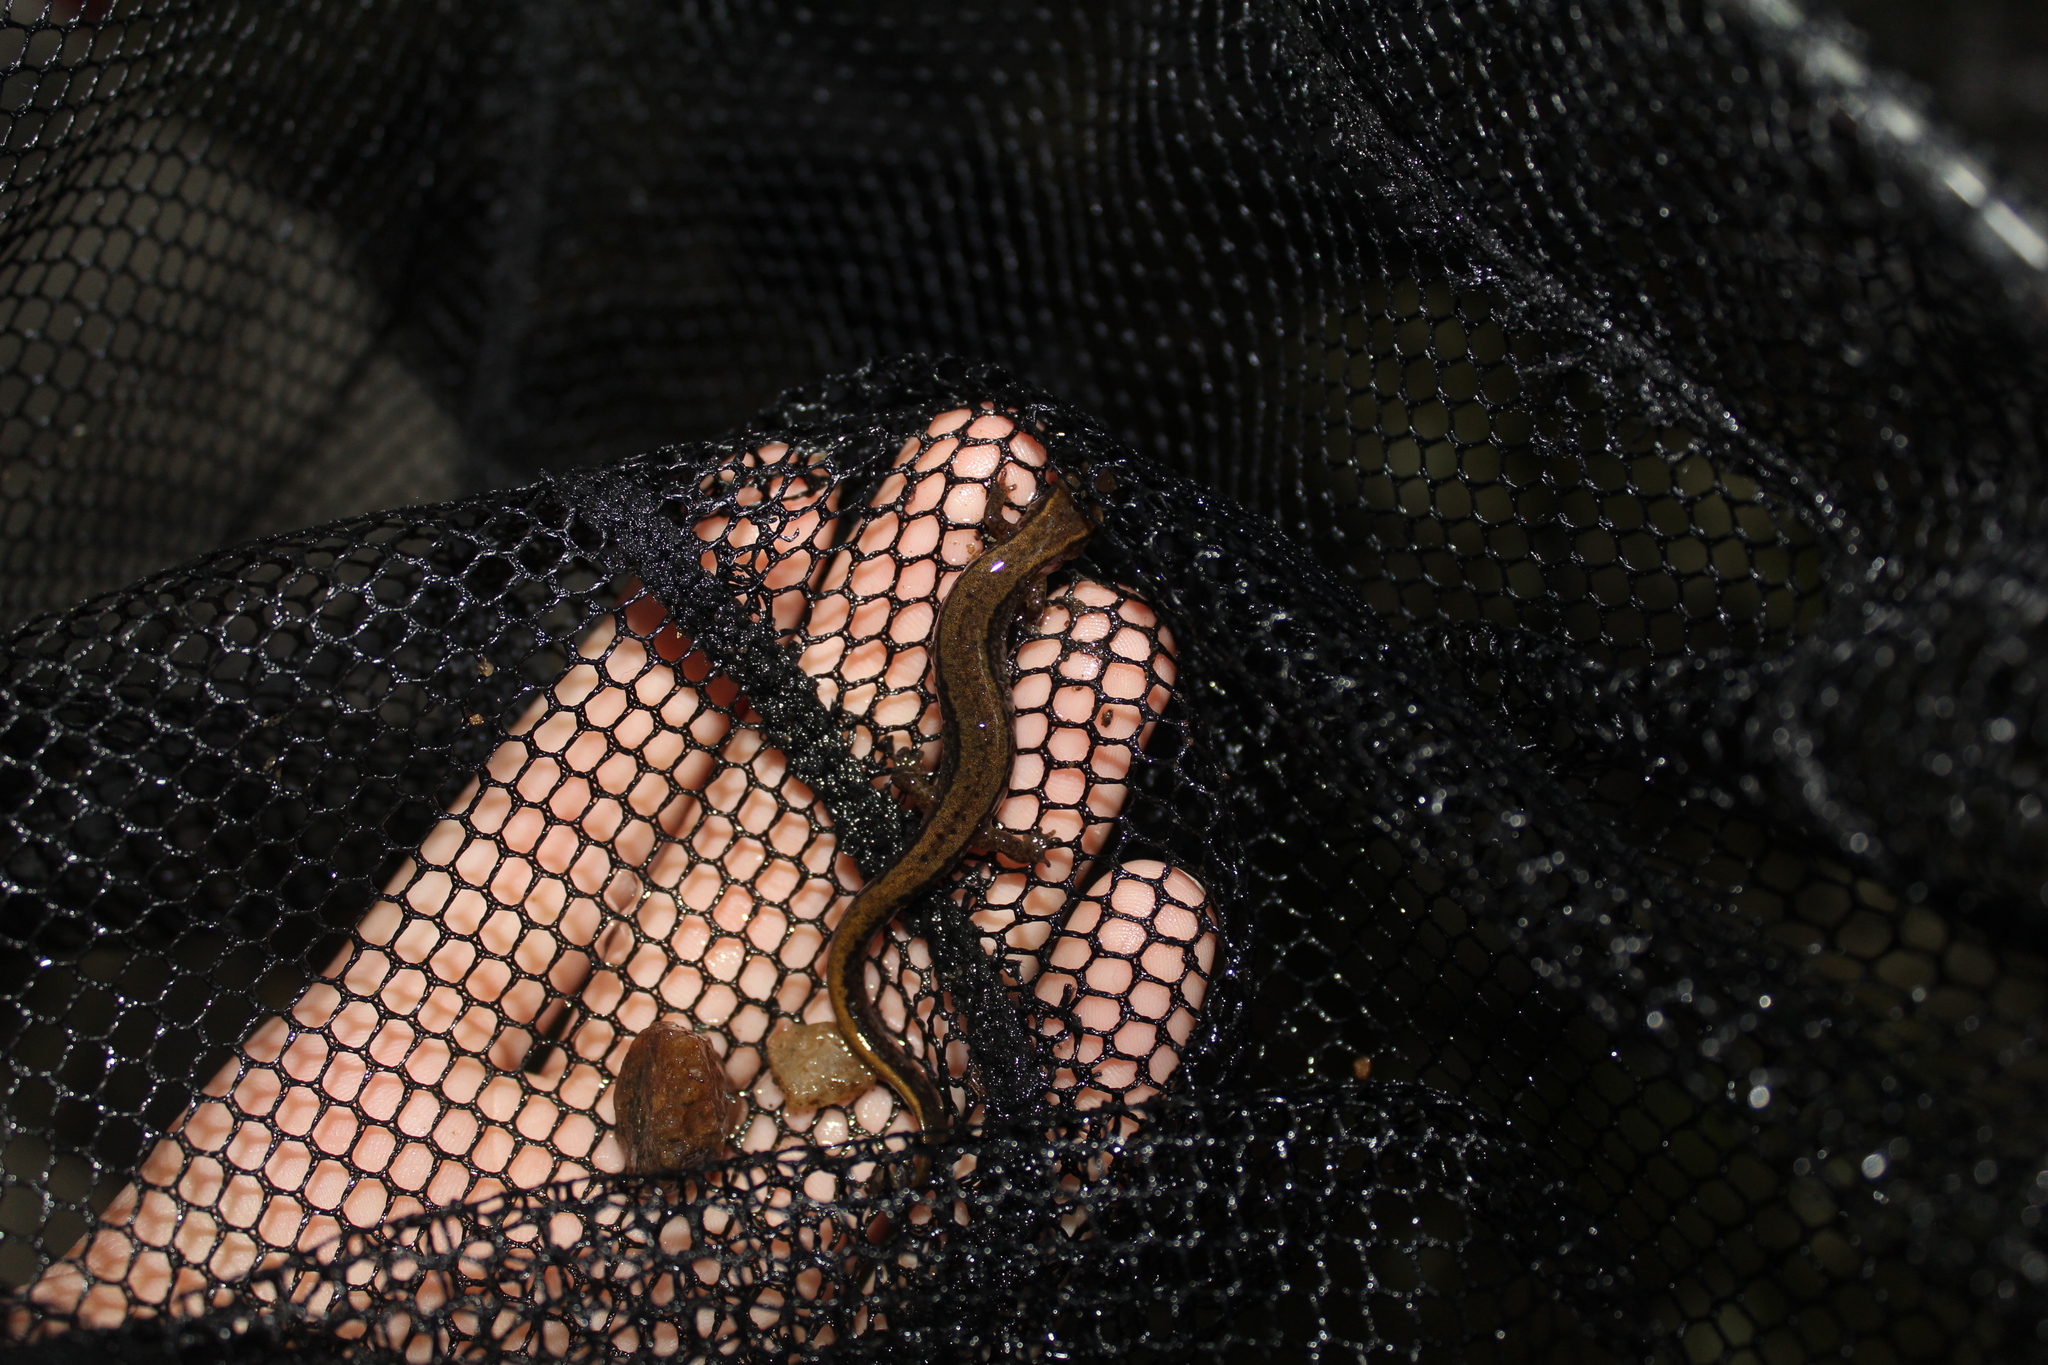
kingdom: Animalia
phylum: Chordata
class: Amphibia
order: Caudata
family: Plethodontidae
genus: Eurycea
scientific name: Eurycea bislineata
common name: Northern two-lined salamander
